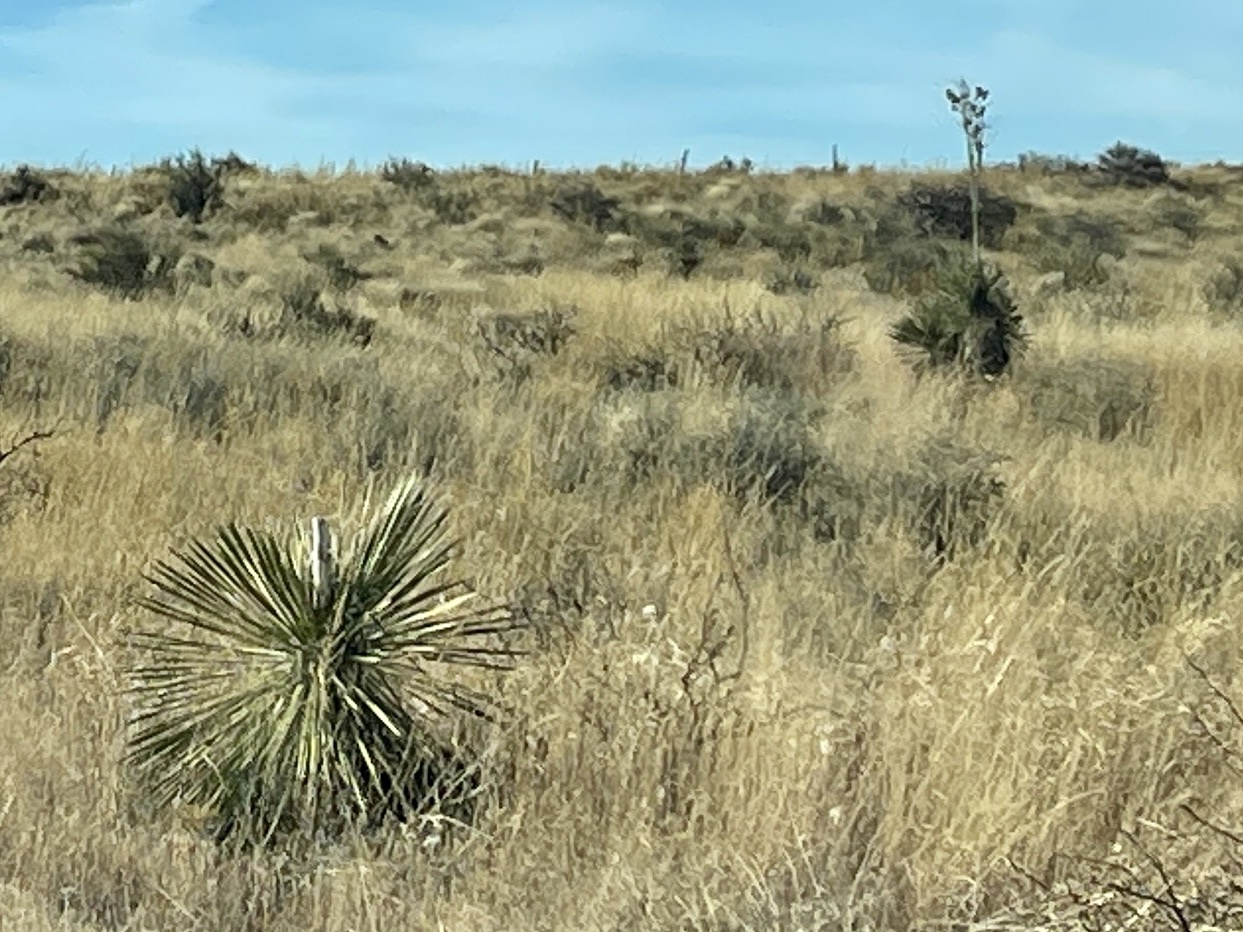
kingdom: Plantae
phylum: Tracheophyta
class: Liliopsida
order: Asparagales
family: Asparagaceae
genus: Yucca
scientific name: Yucca elata
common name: Palmella
